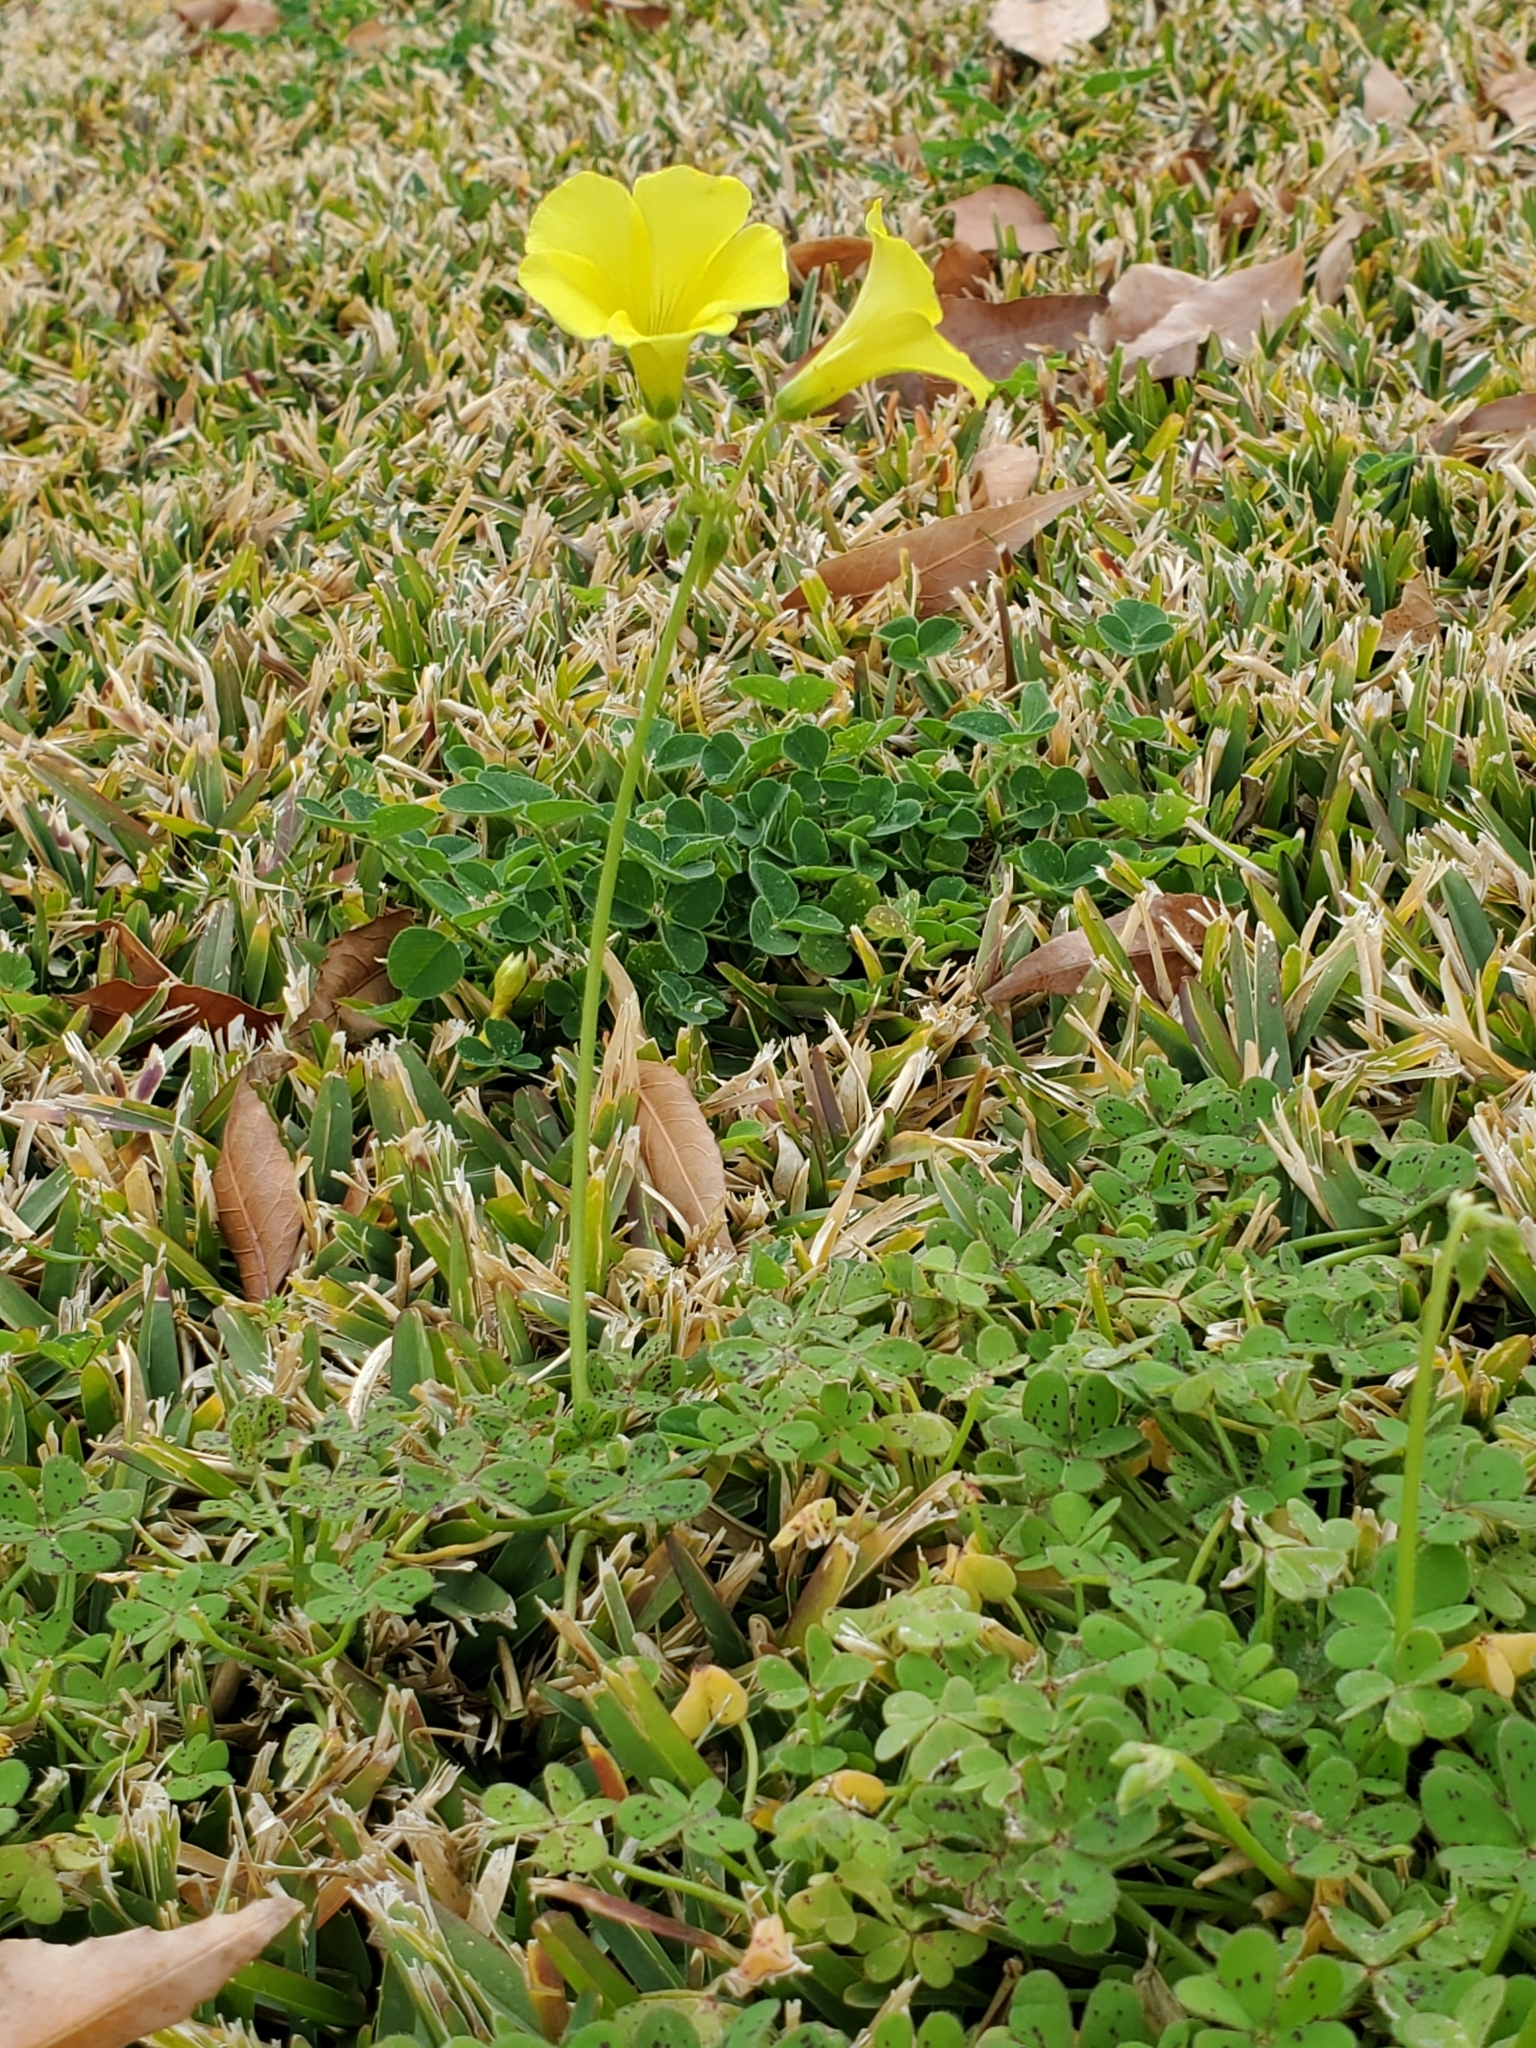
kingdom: Plantae
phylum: Tracheophyta
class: Magnoliopsida
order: Oxalidales
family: Oxalidaceae
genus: Oxalis
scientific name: Oxalis pes-caprae
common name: Bermuda-buttercup
